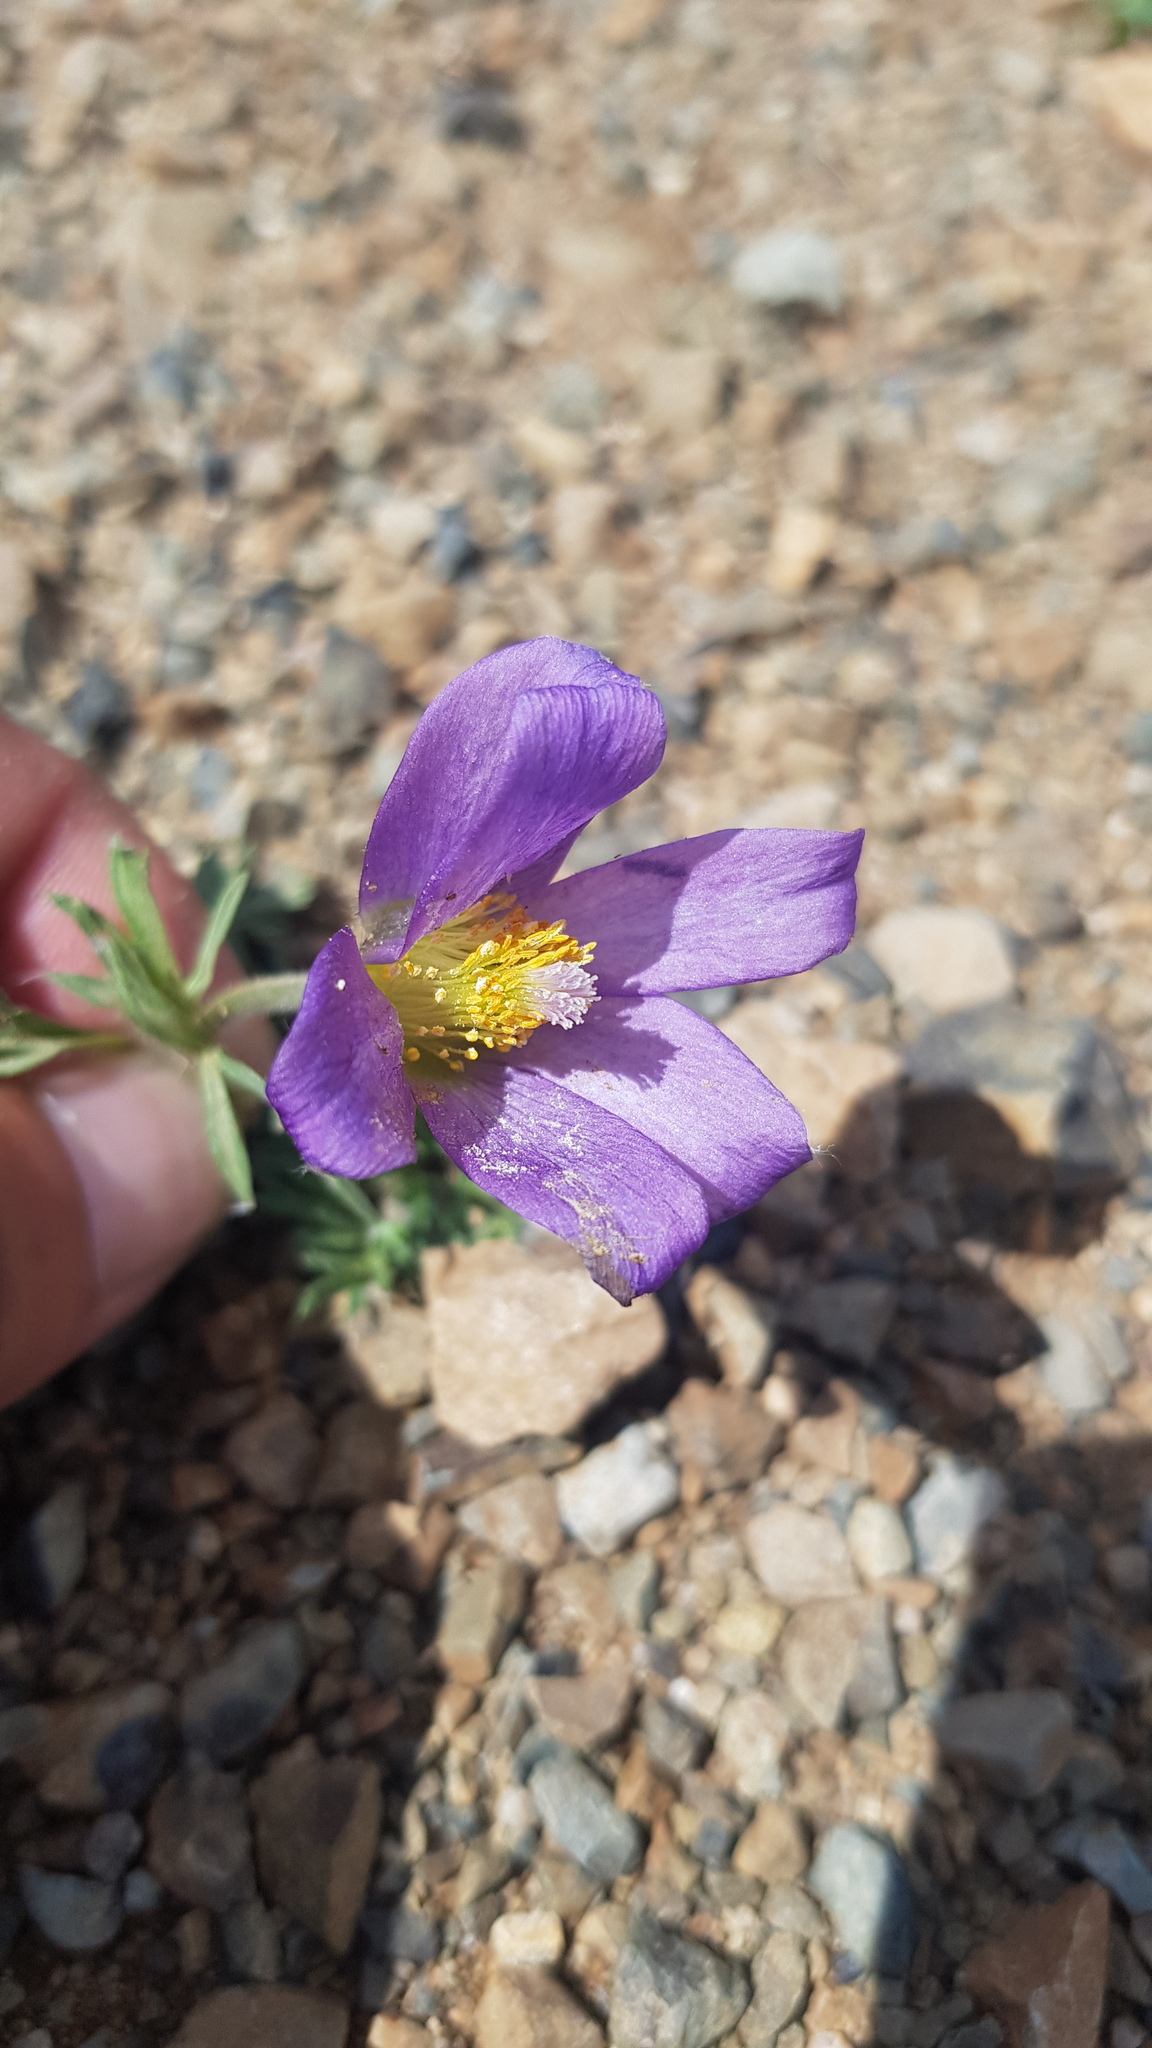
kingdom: Plantae
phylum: Tracheophyta
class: Magnoliopsida
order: Ranunculales
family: Ranunculaceae
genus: Pulsatilla
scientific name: Pulsatilla turczaninovii
